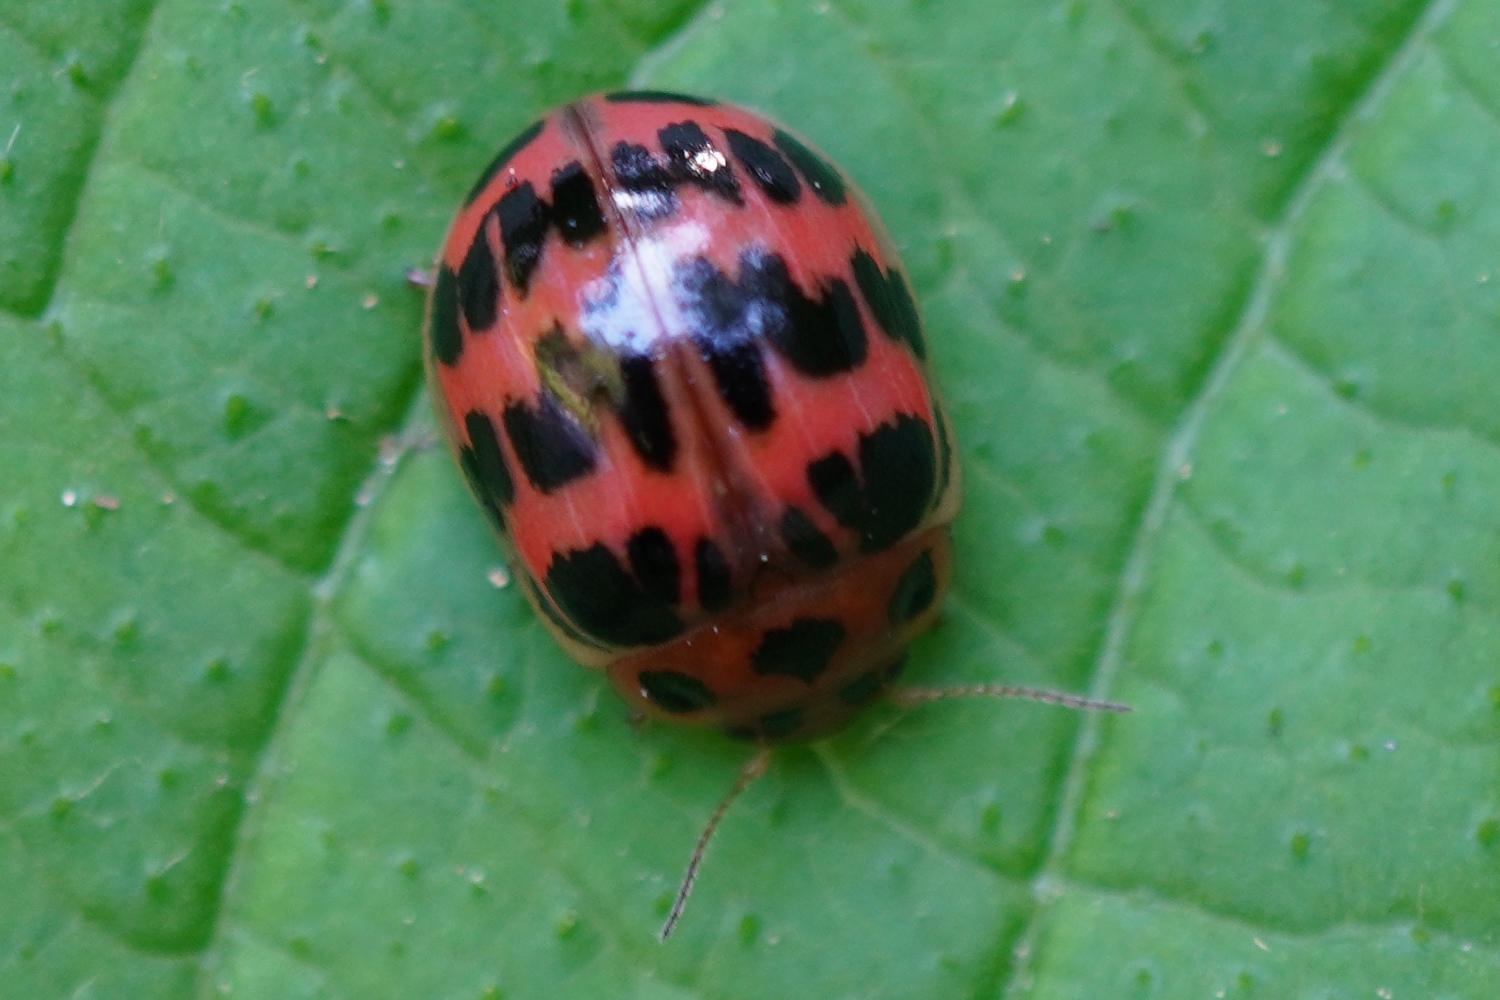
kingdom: Animalia
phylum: Arthropoda
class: Insecta
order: Coleoptera
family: Chrysomelidae
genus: Paropsides
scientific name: Paropsides
